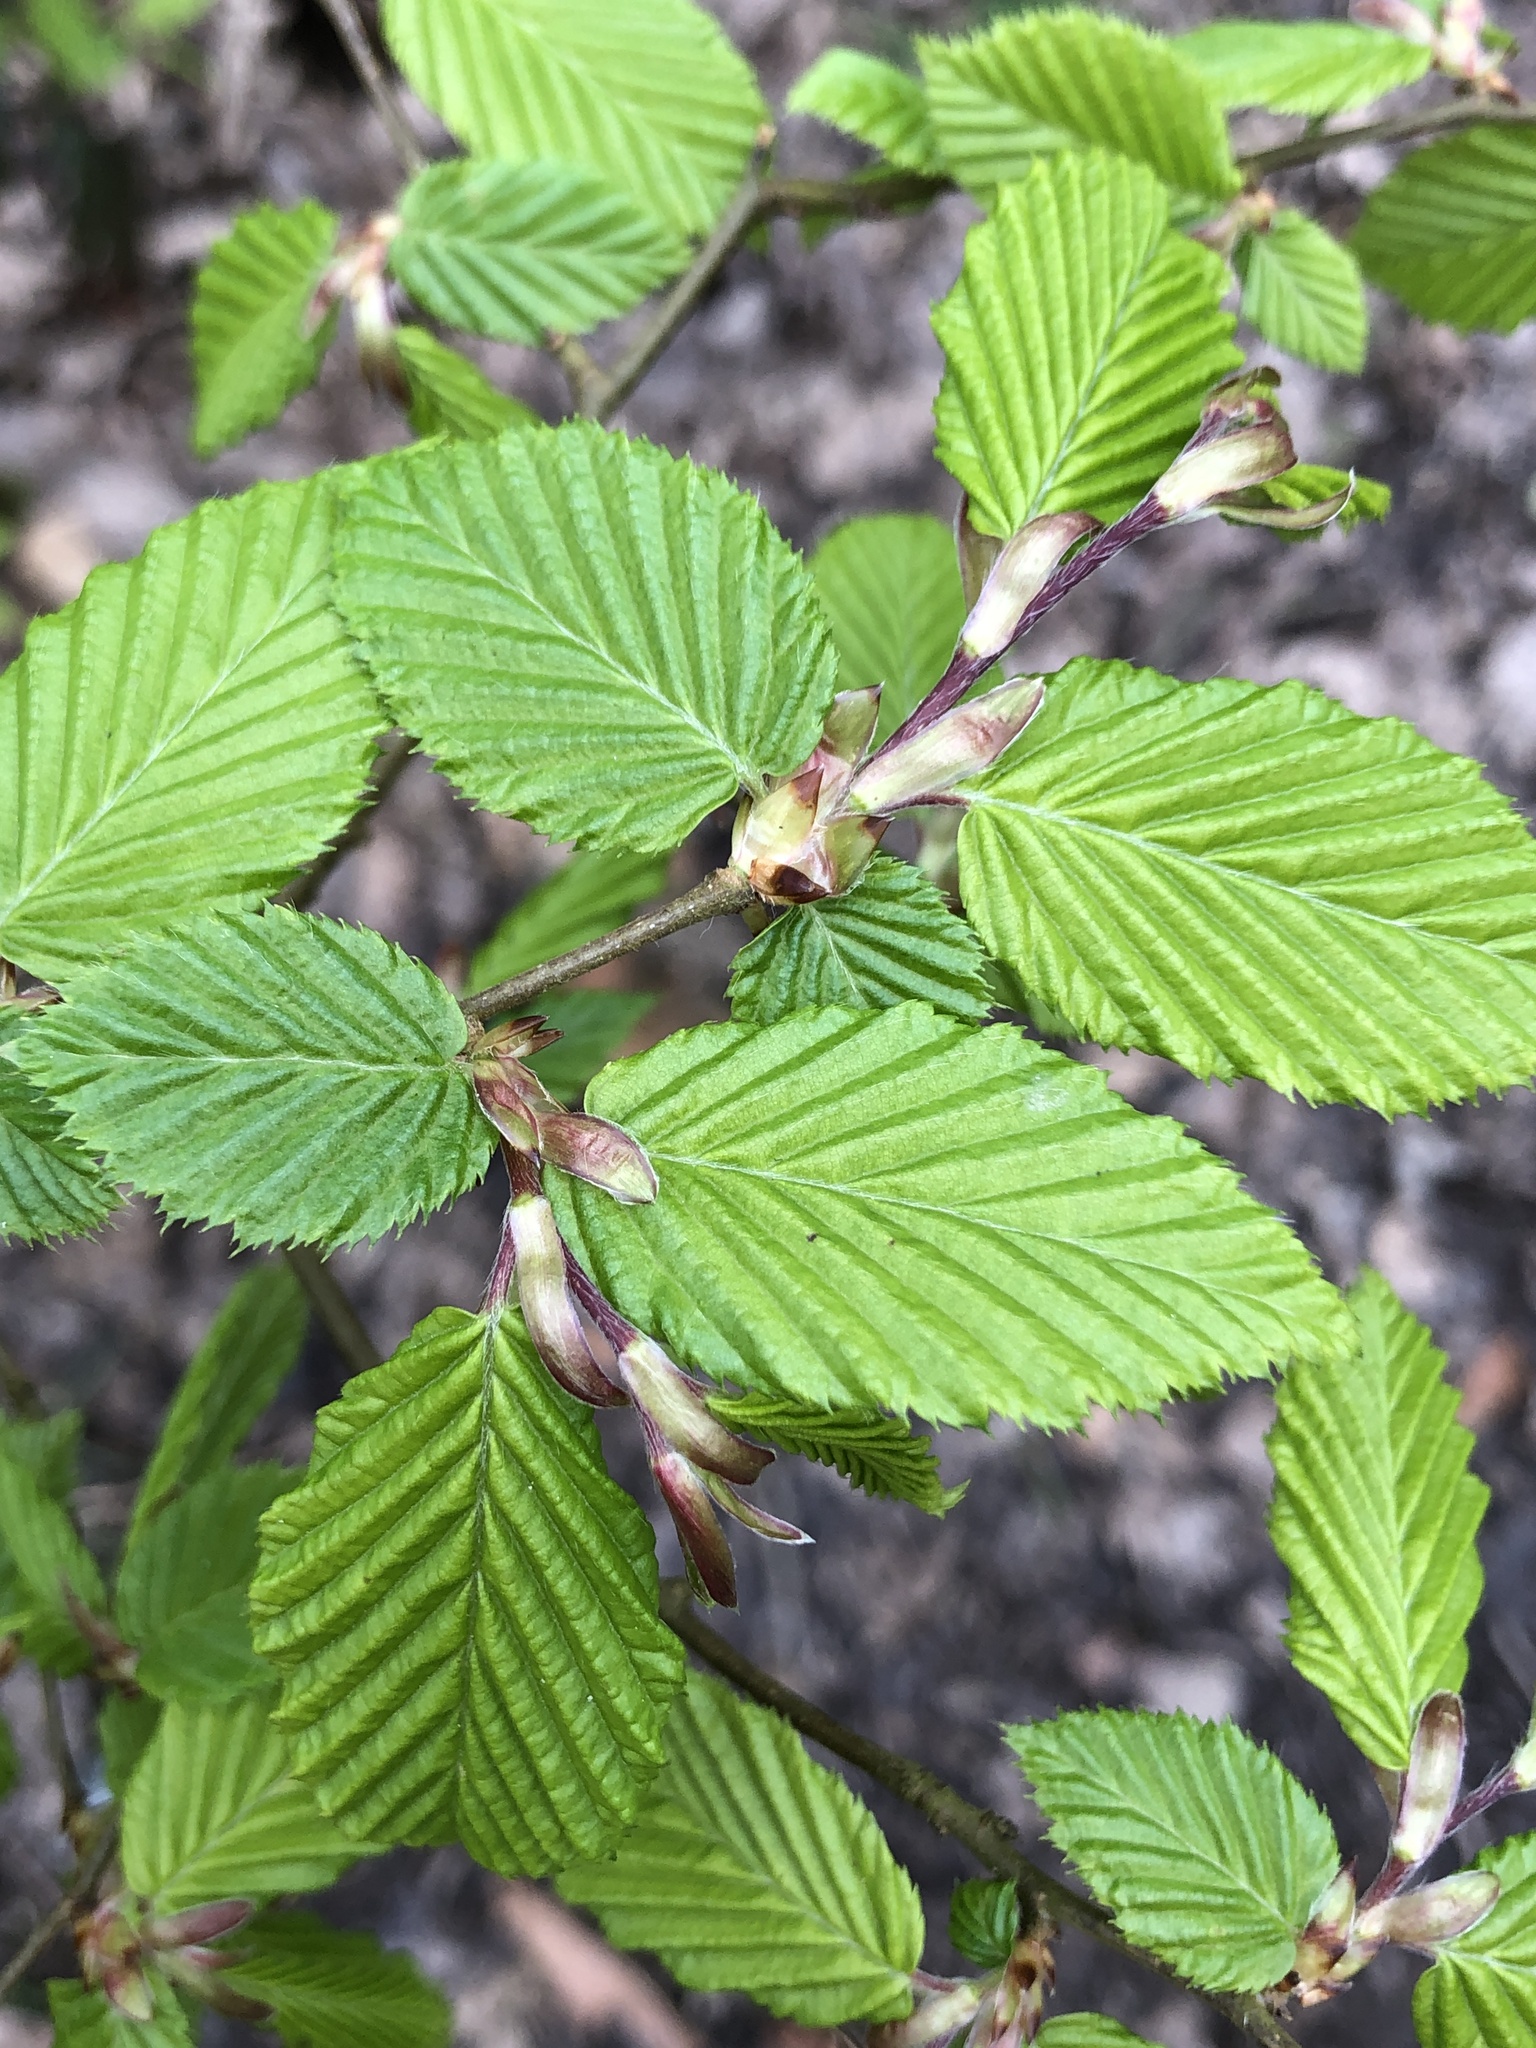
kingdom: Plantae
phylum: Tracheophyta
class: Magnoliopsida
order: Fagales
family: Betulaceae
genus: Carpinus
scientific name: Carpinus betulus
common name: Hornbeam
